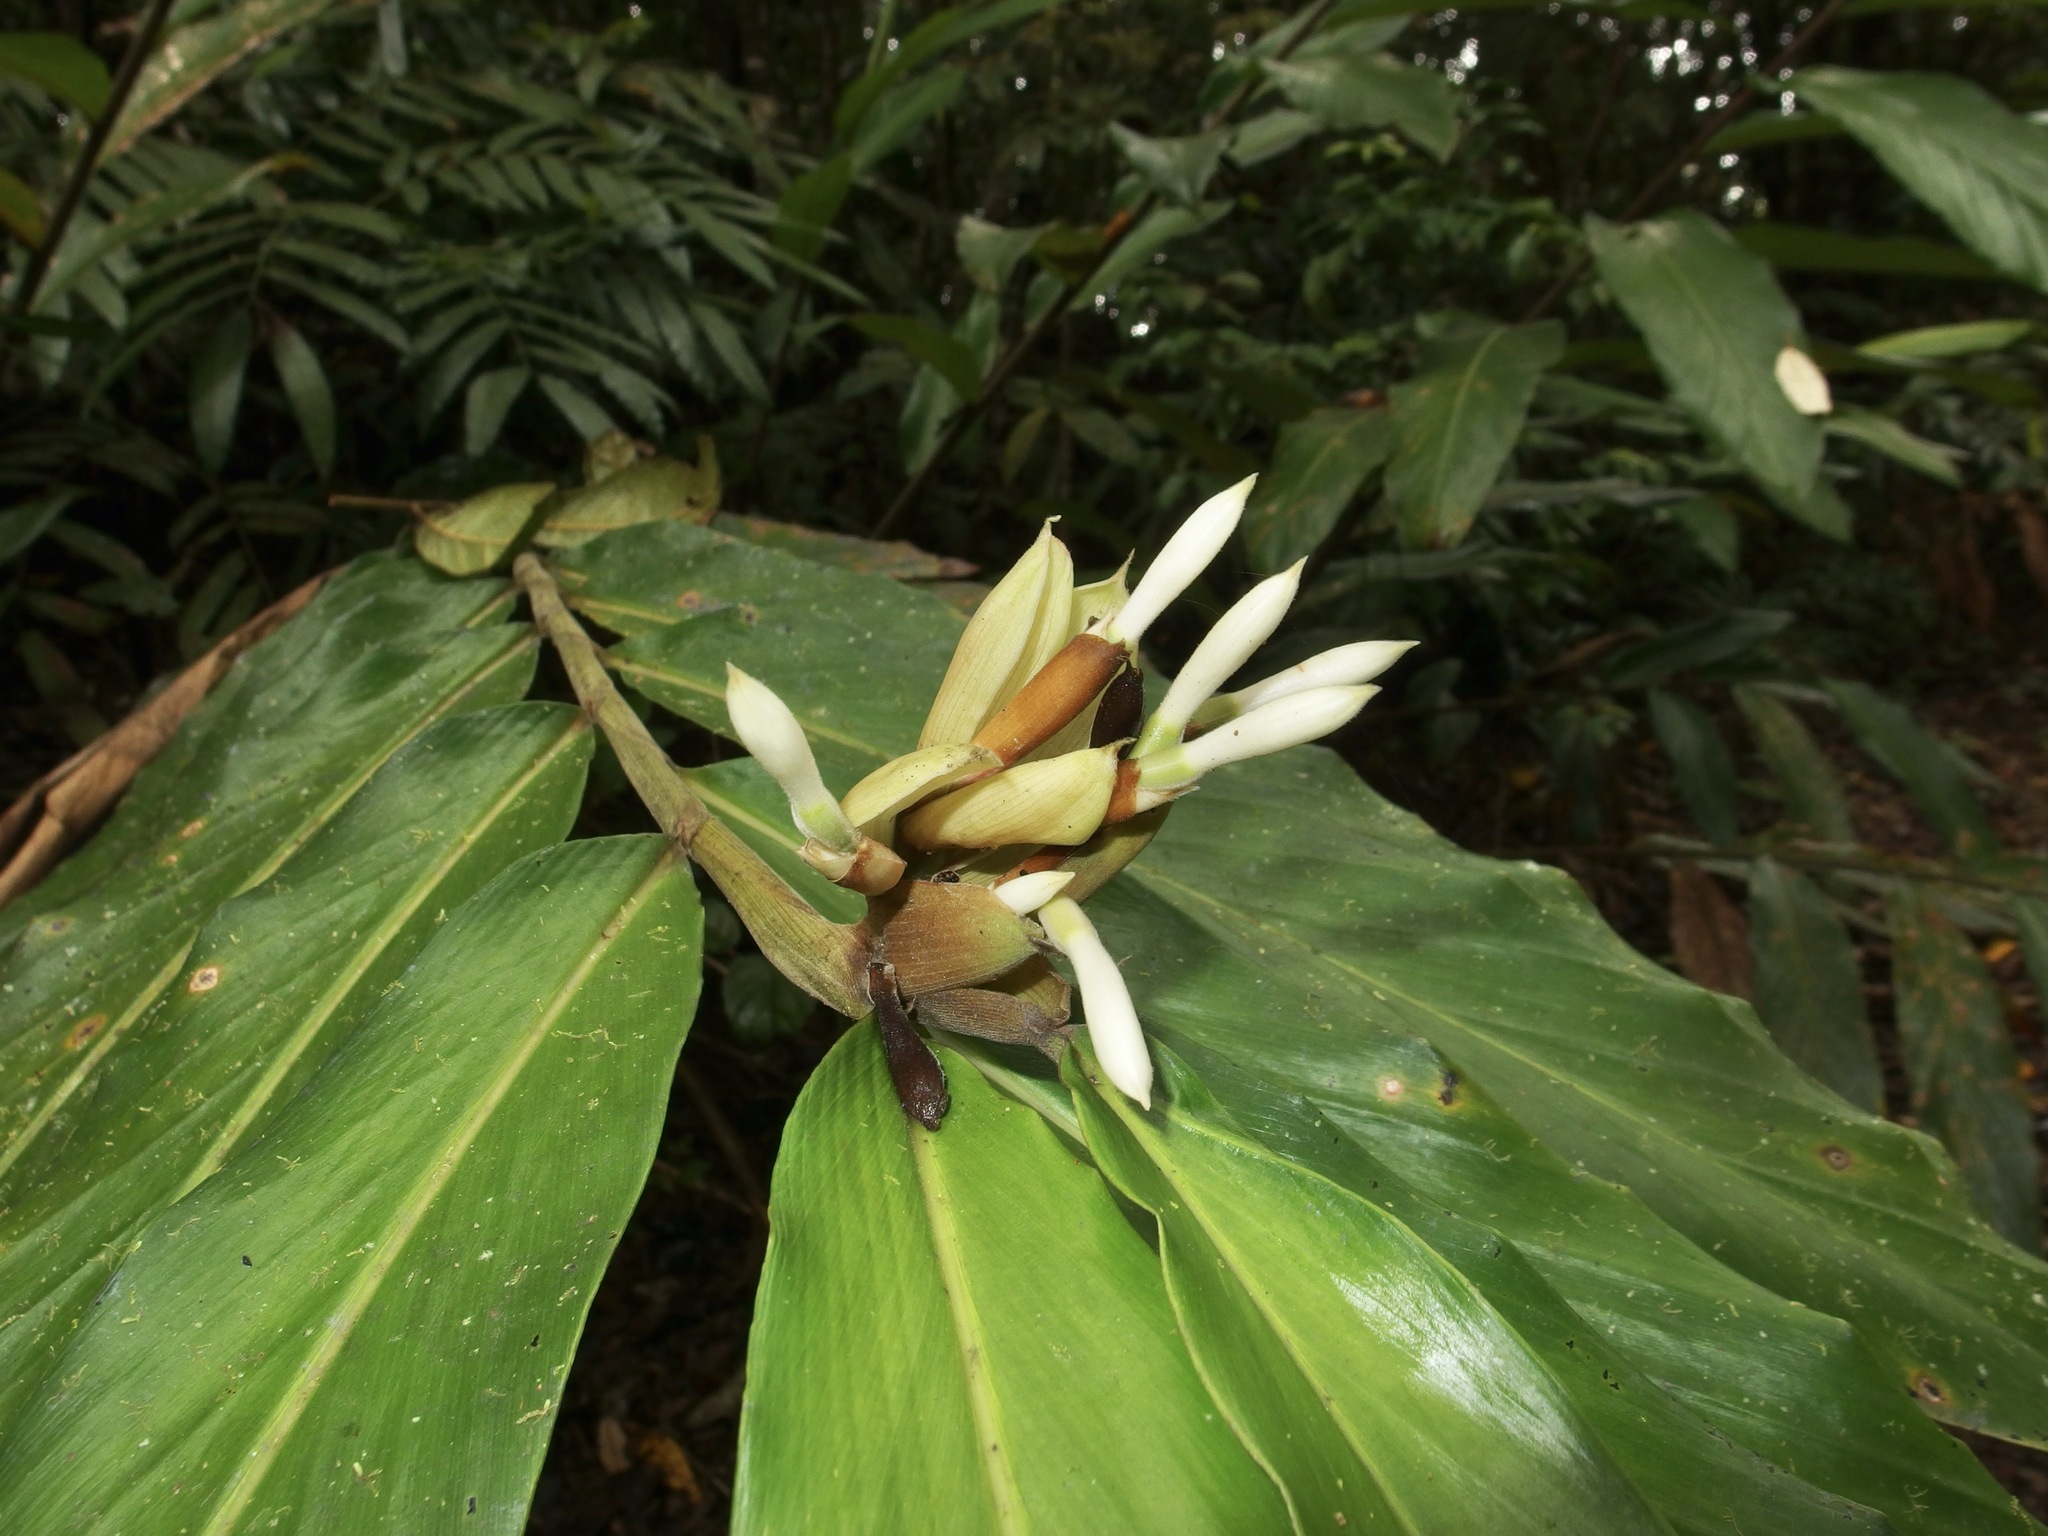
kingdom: Plantae
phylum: Tracheophyta
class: Liliopsida
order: Zingiberales
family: Zingiberaceae
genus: Alpinia
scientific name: Alpinia arctiflora
